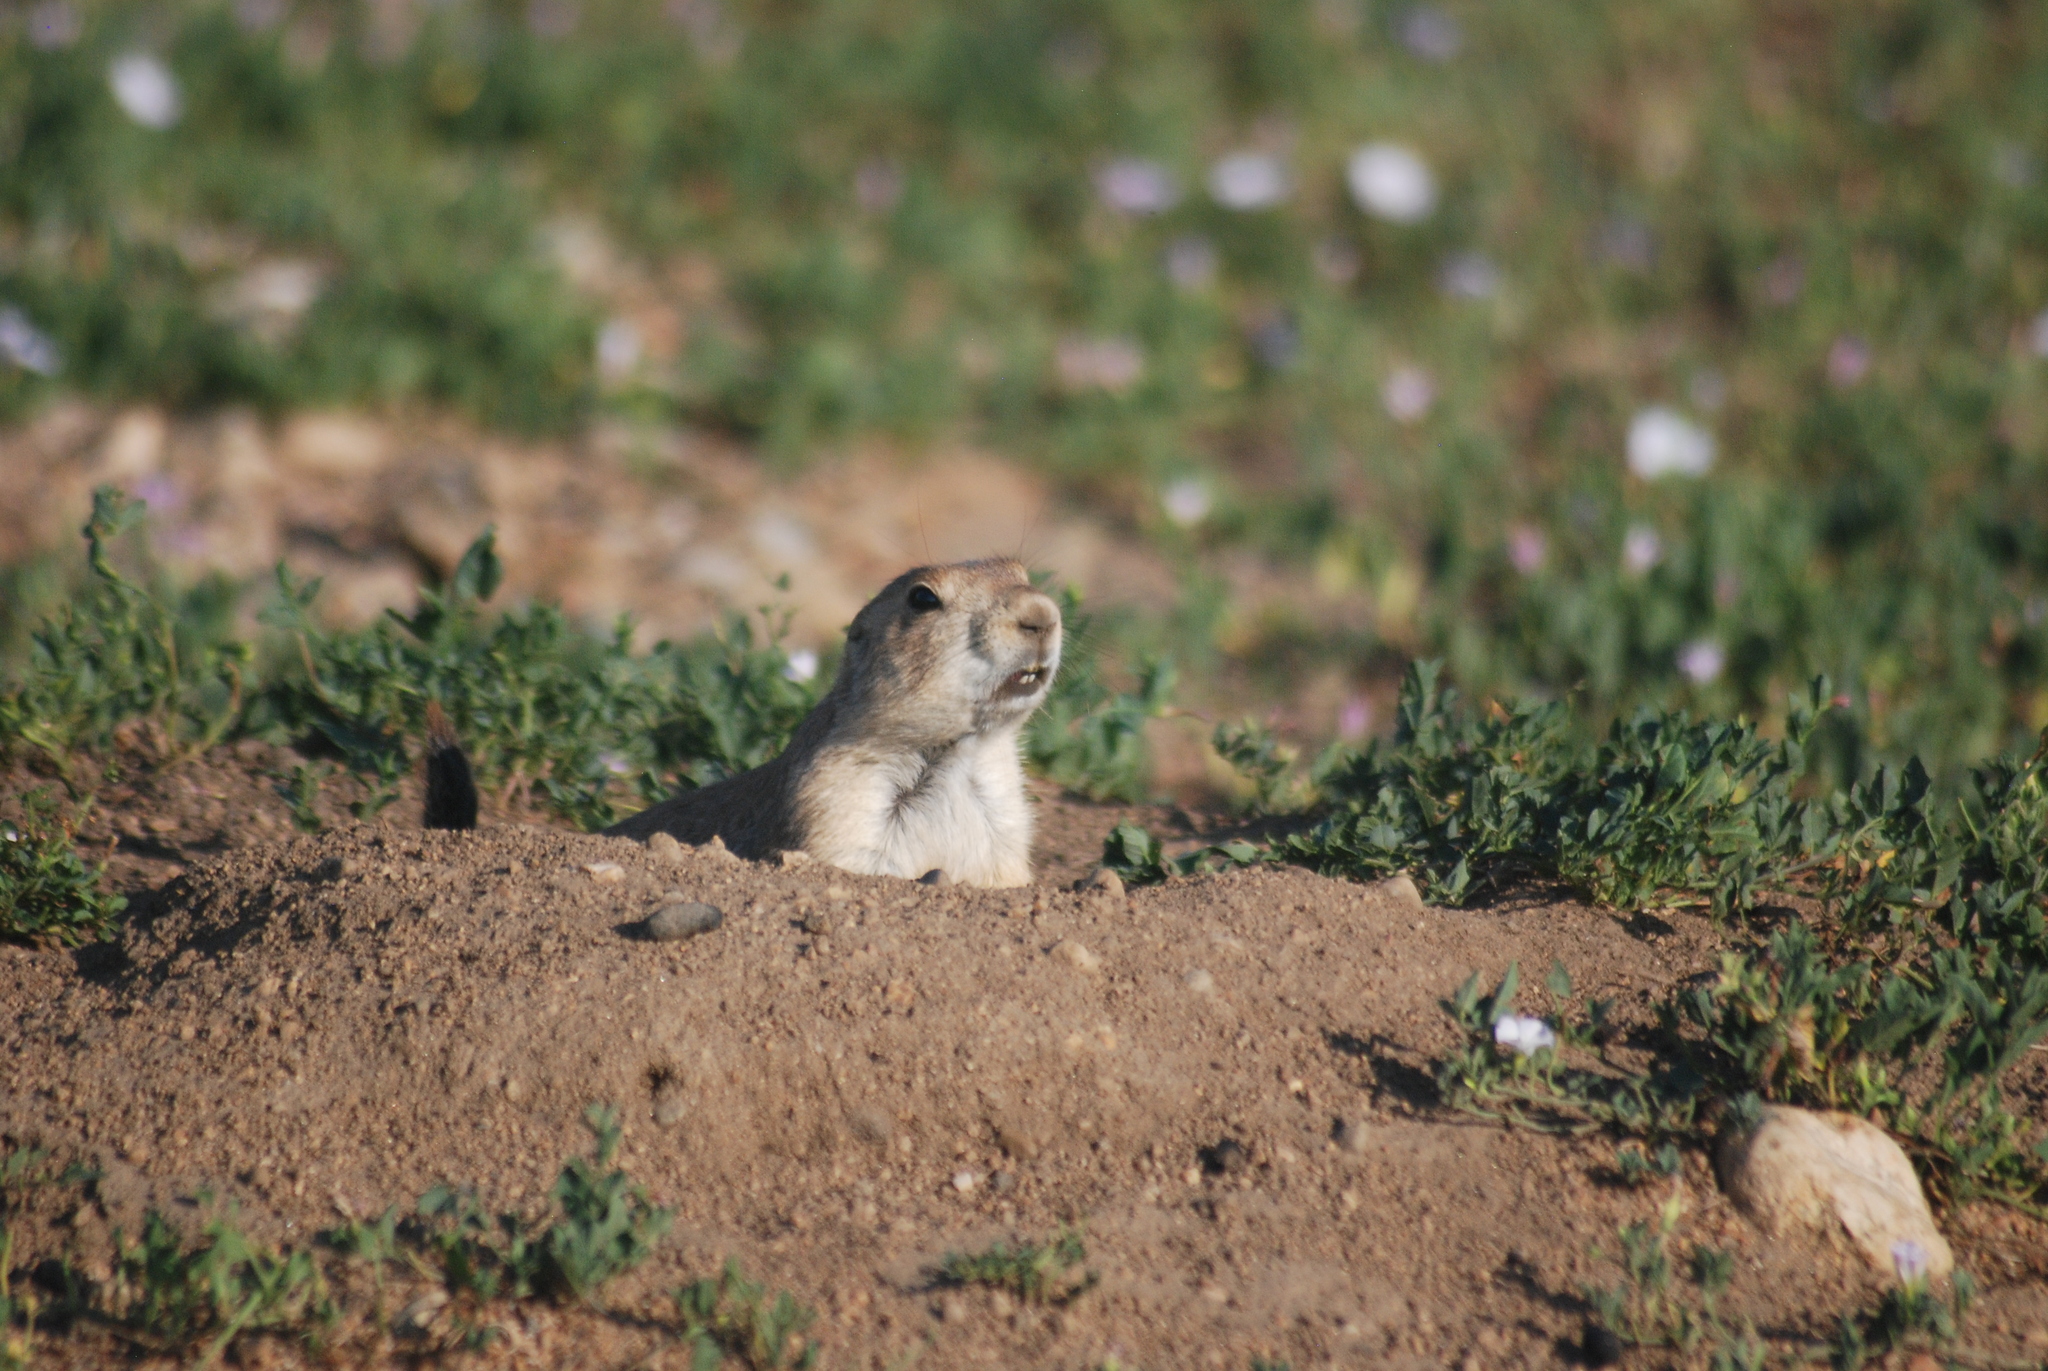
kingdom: Animalia
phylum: Chordata
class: Mammalia
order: Rodentia
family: Sciuridae
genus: Cynomys
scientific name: Cynomys ludovicianus
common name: Black-tailed prairie dog
